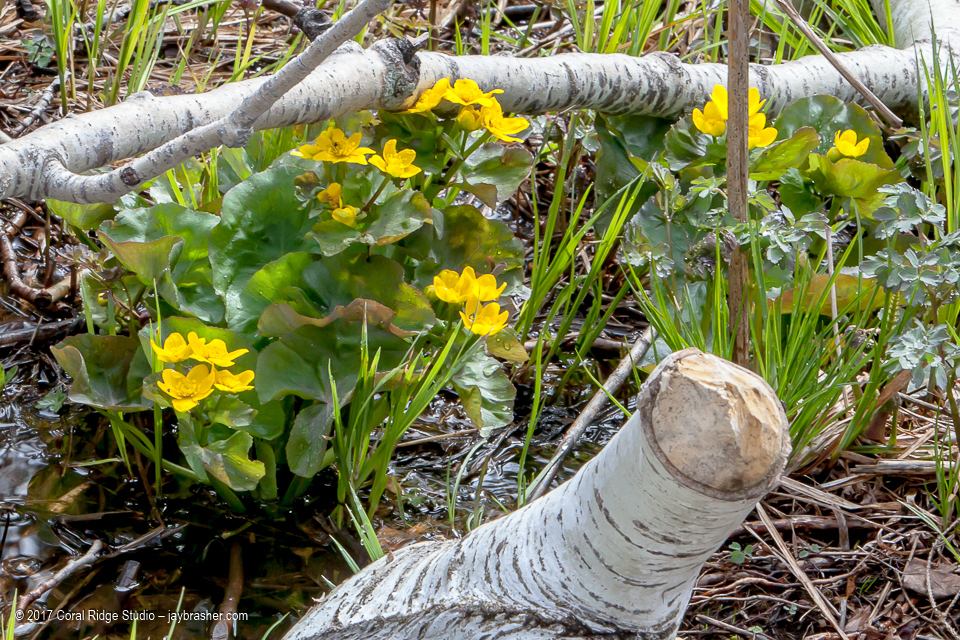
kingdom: Plantae
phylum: Tracheophyta
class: Magnoliopsida
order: Ranunculales
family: Ranunculaceae
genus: Caltha
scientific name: Caltha palustris
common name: Marsh marigold
